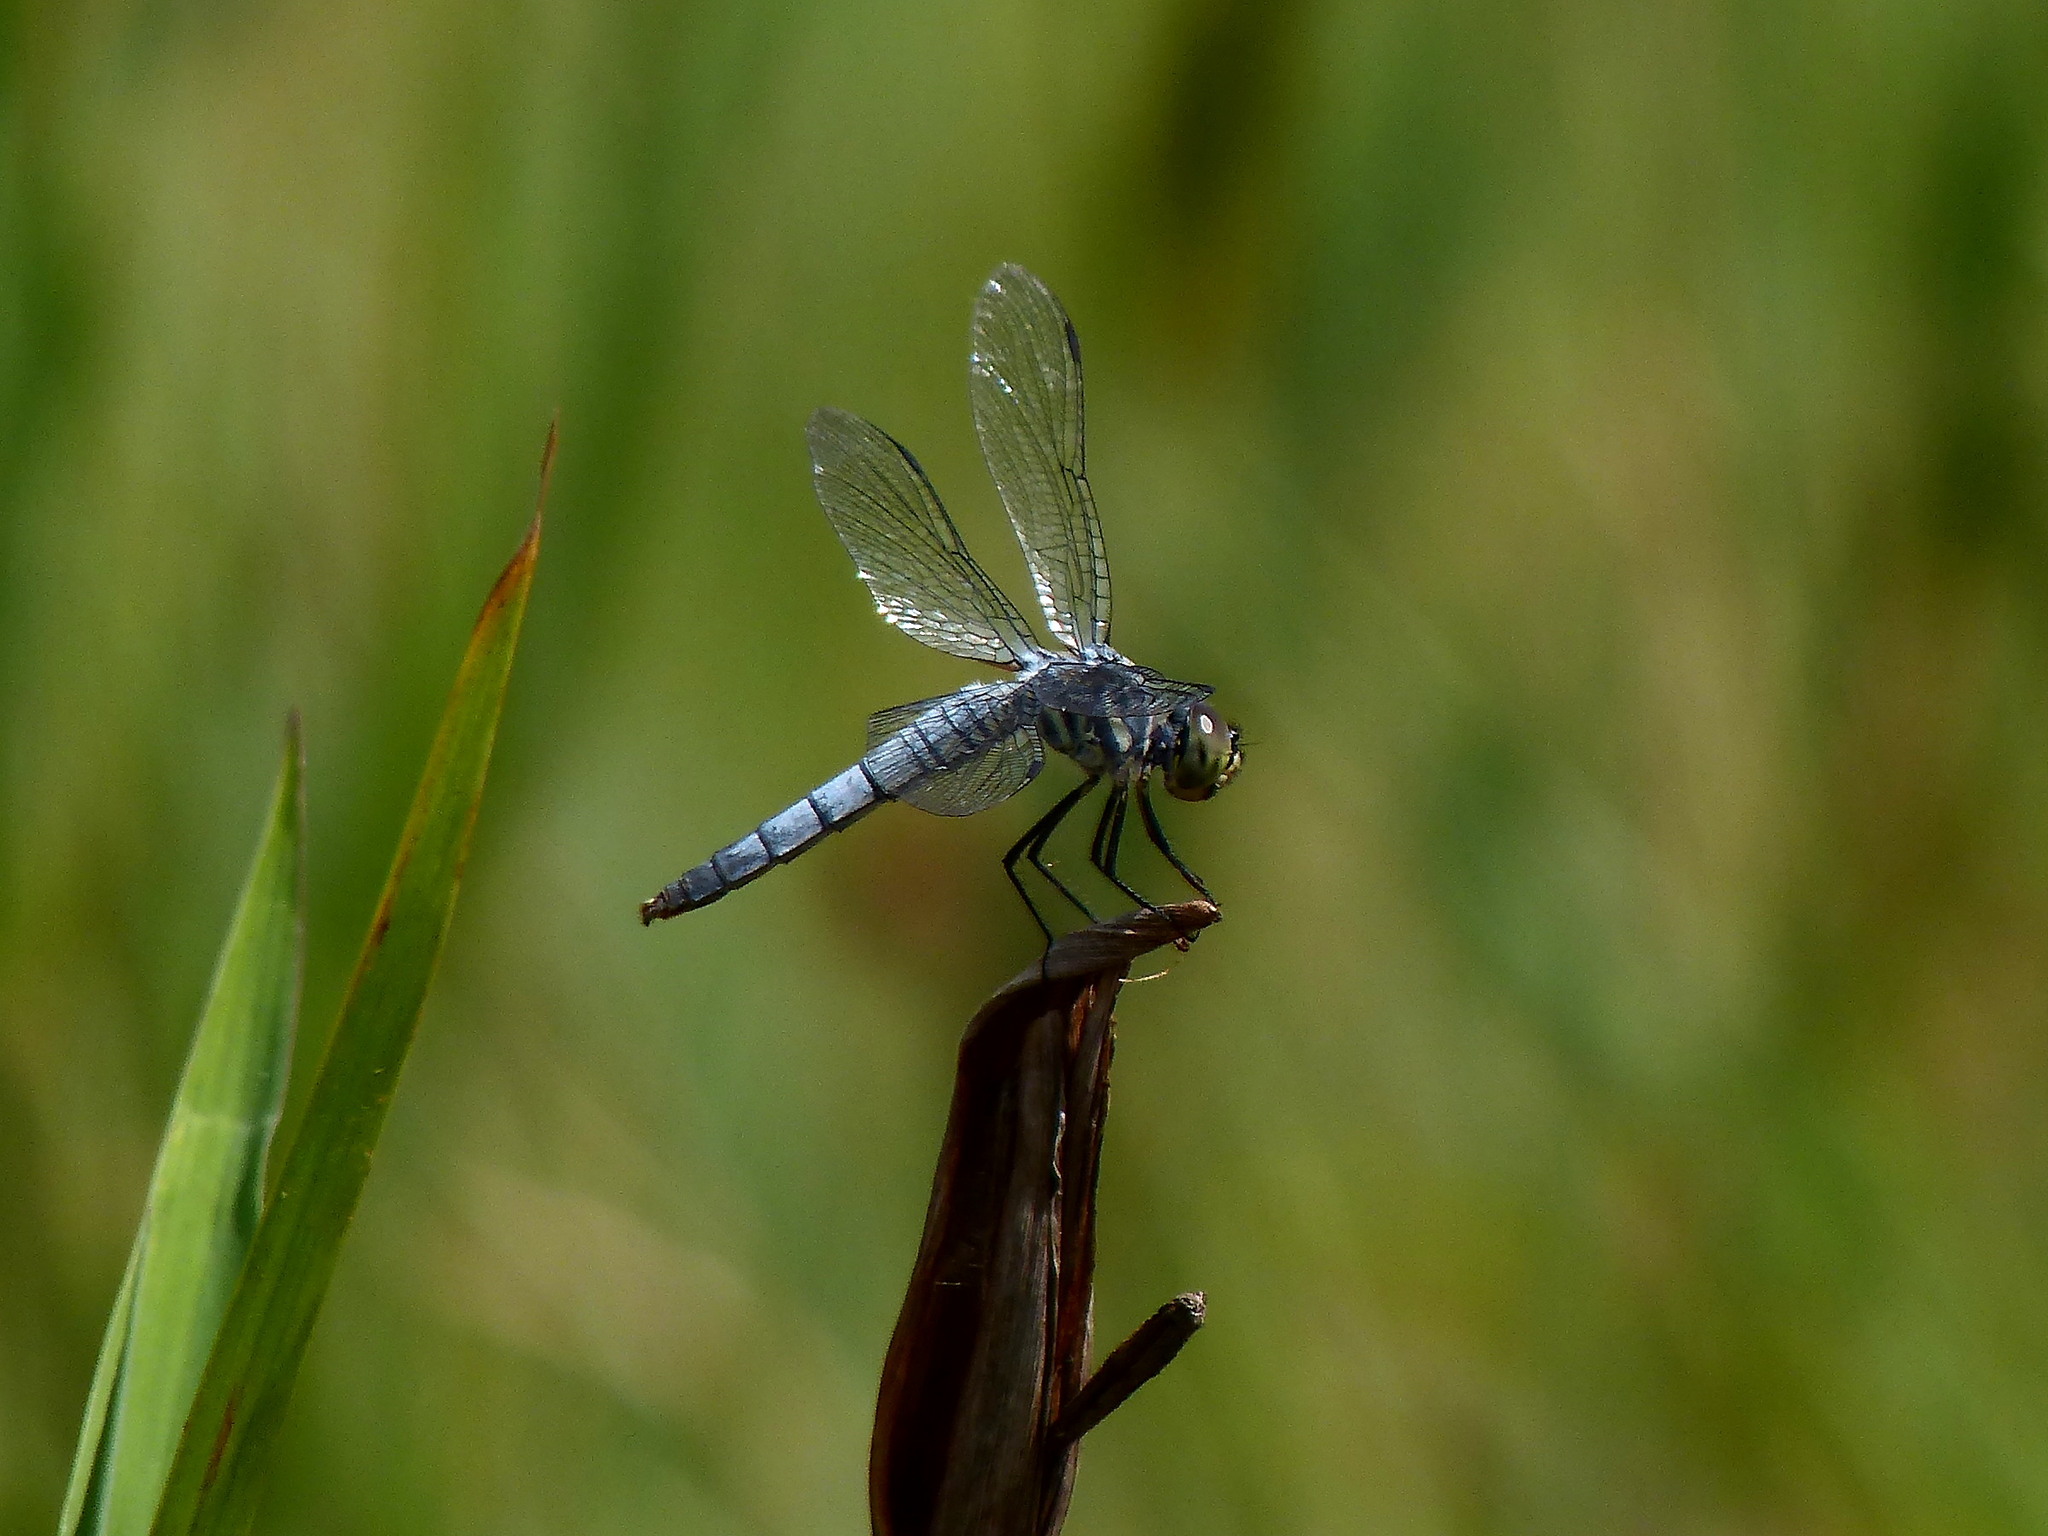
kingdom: Animalia
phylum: Arthropoda
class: Insecta
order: Odonata
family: Libellulidae
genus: Deielia
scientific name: Deielia phaon
